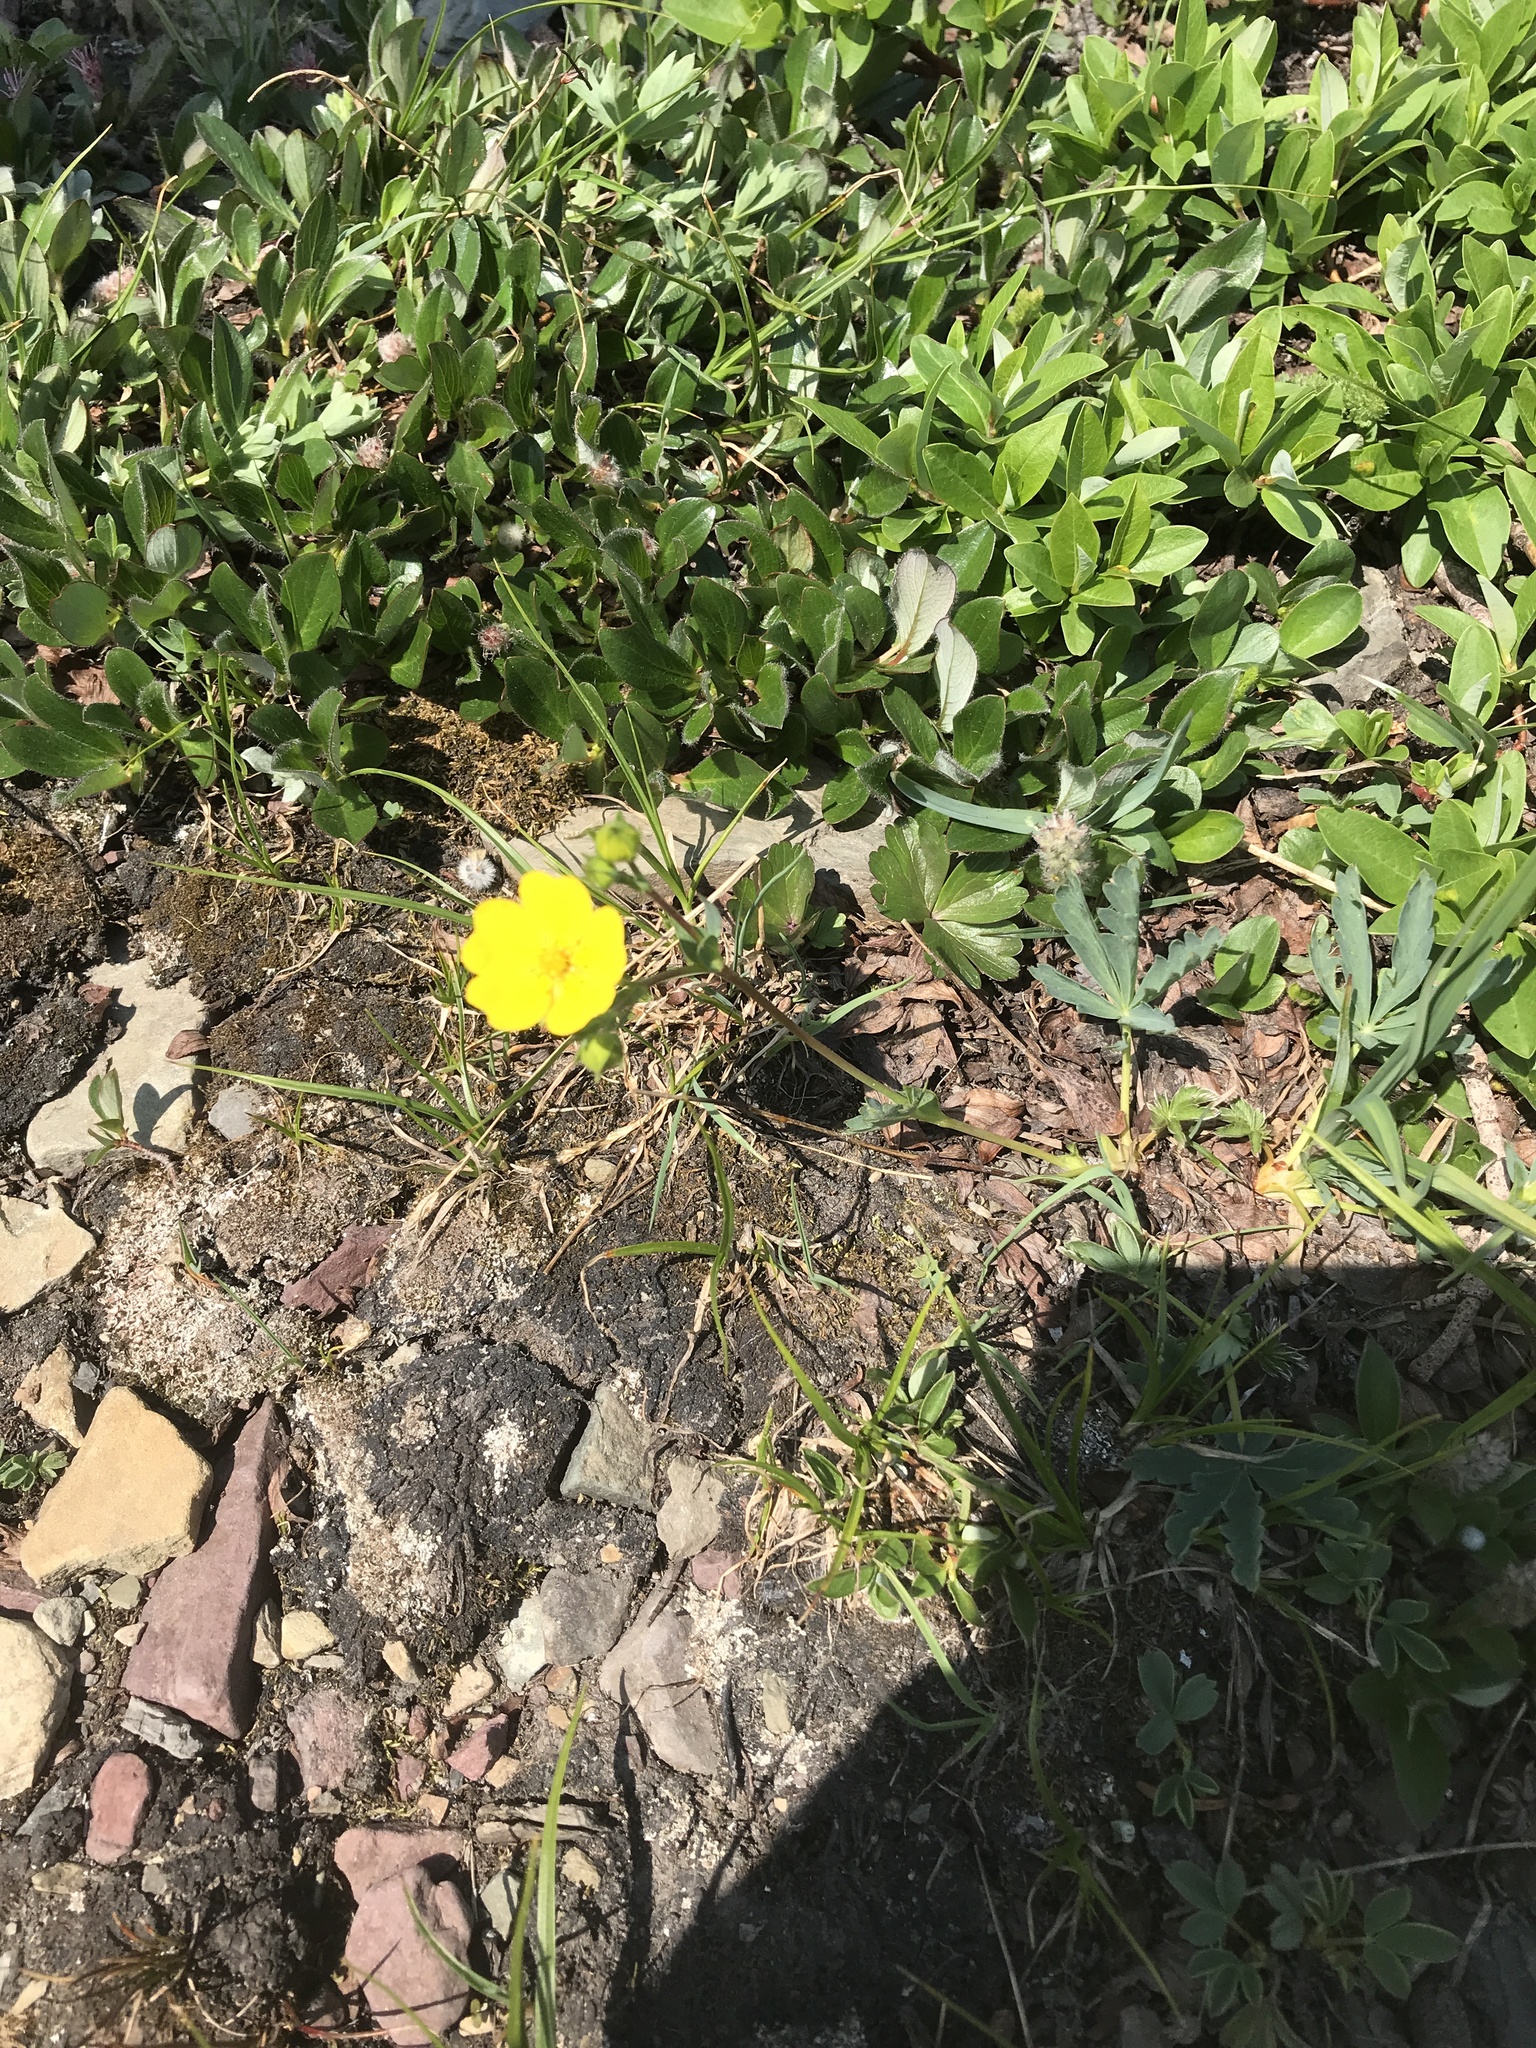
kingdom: Plantae
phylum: Tracheophyta
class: Magnoliopsida
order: Rosales
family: Rosaceae
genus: Potentilla
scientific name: Potentilla glaucophylla
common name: Blue-leaved cinquefoil
